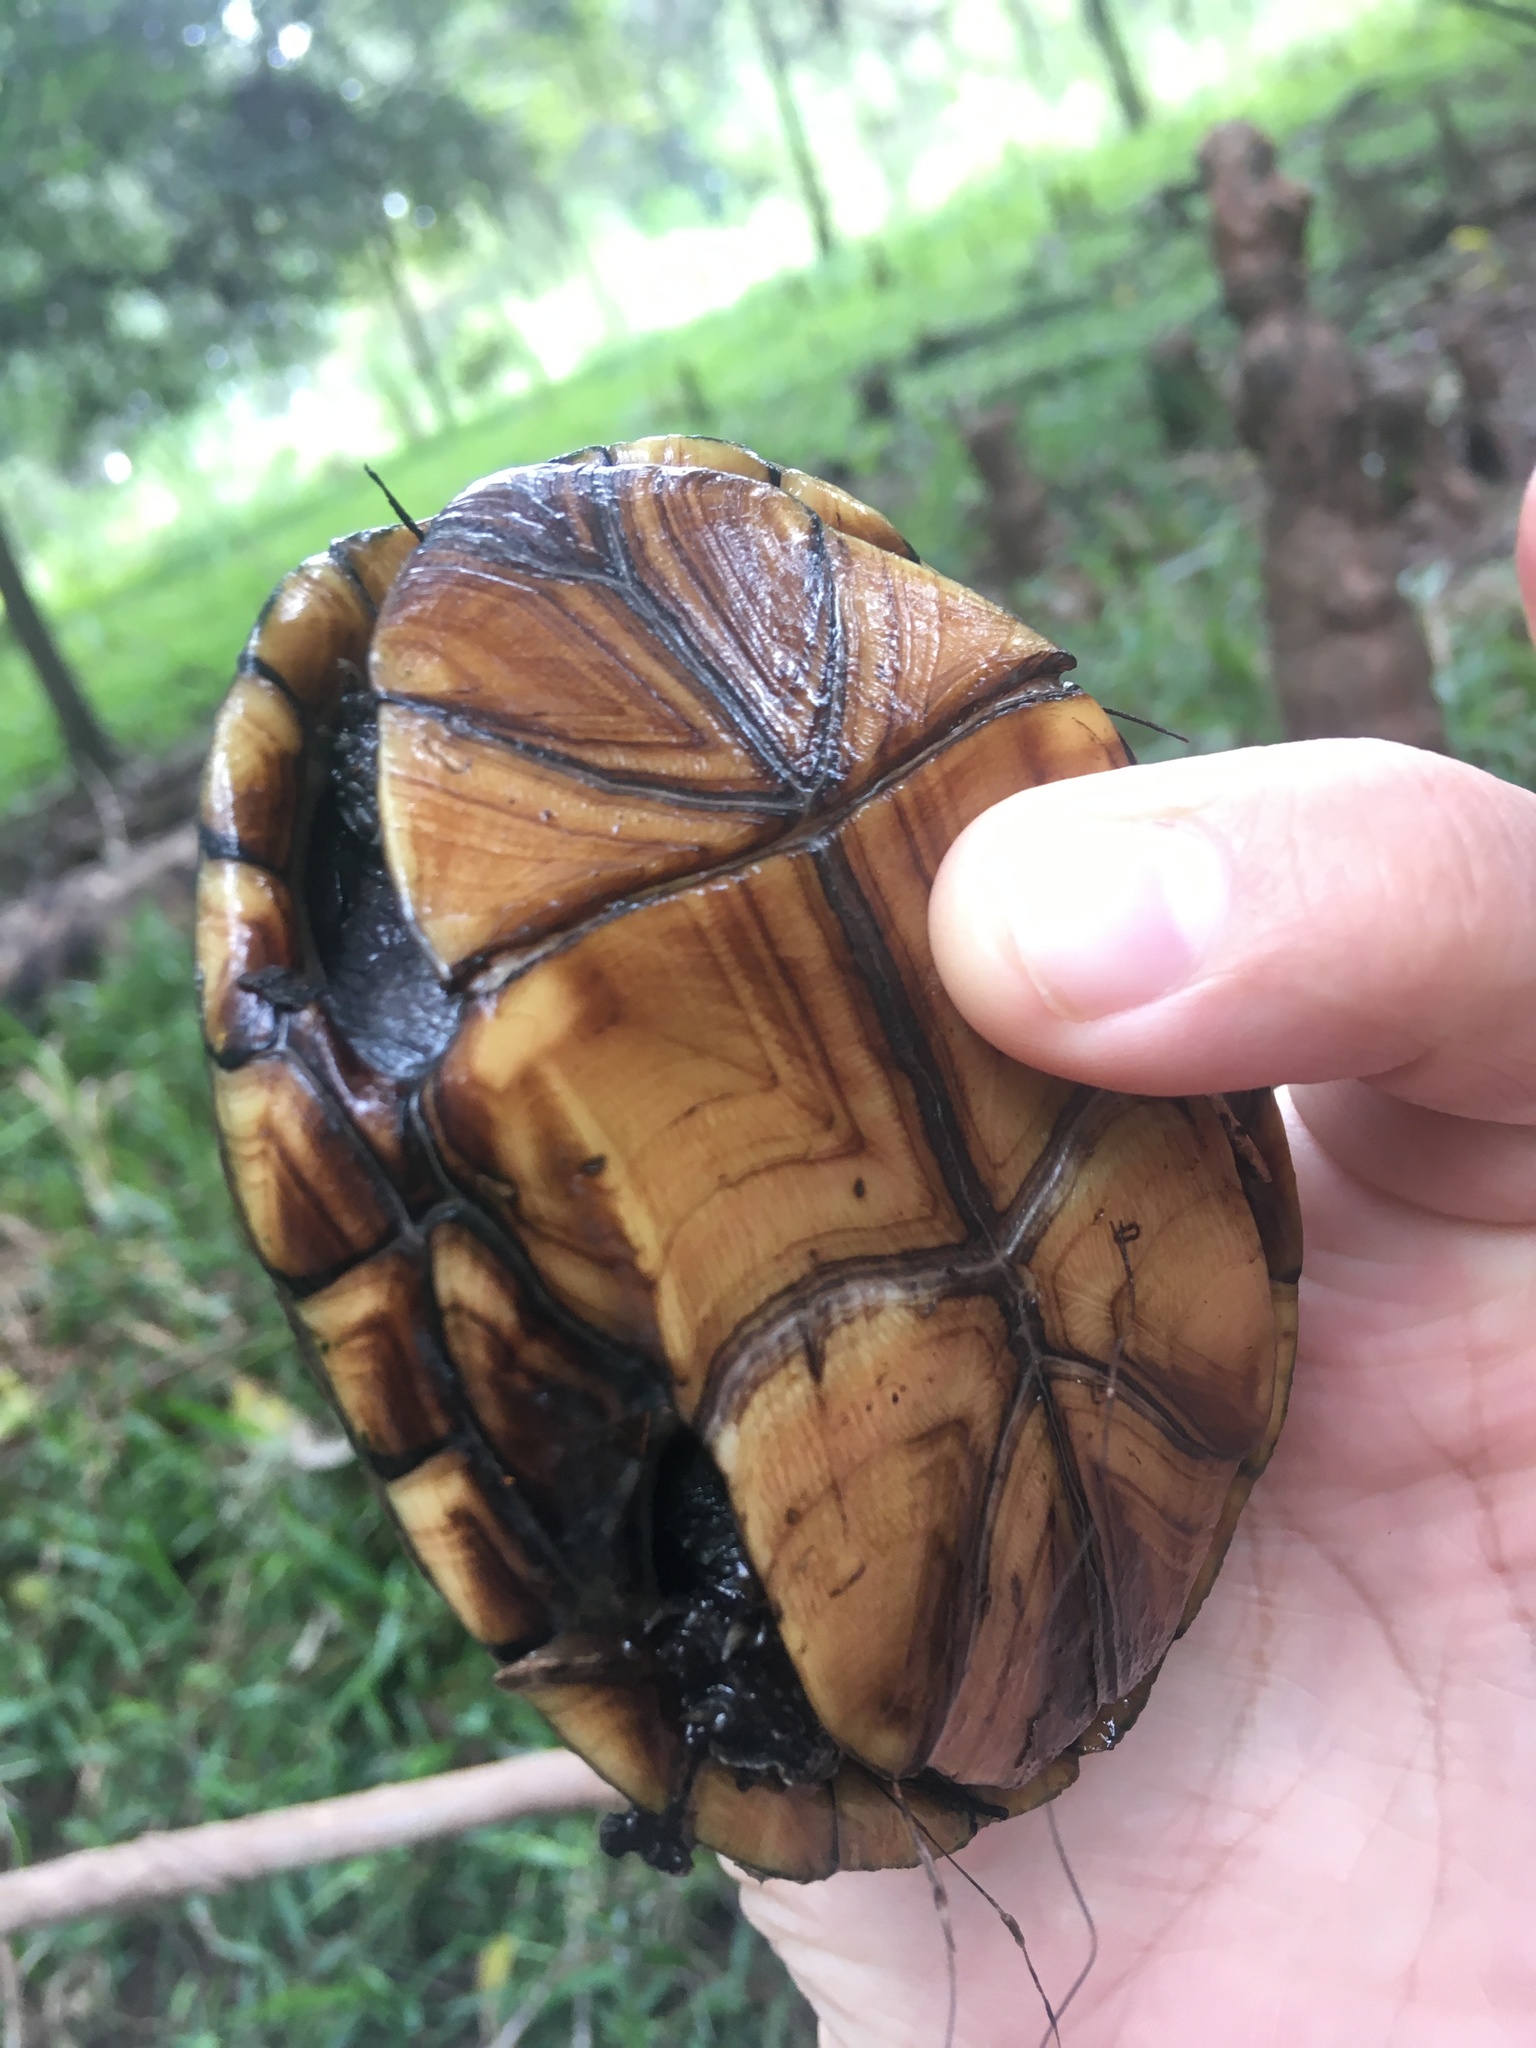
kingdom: Animalia
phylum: Chordata
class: Testudines
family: Kinosternidae
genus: Kinosternon
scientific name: Kinosternon baurii
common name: Striped mud turtle
